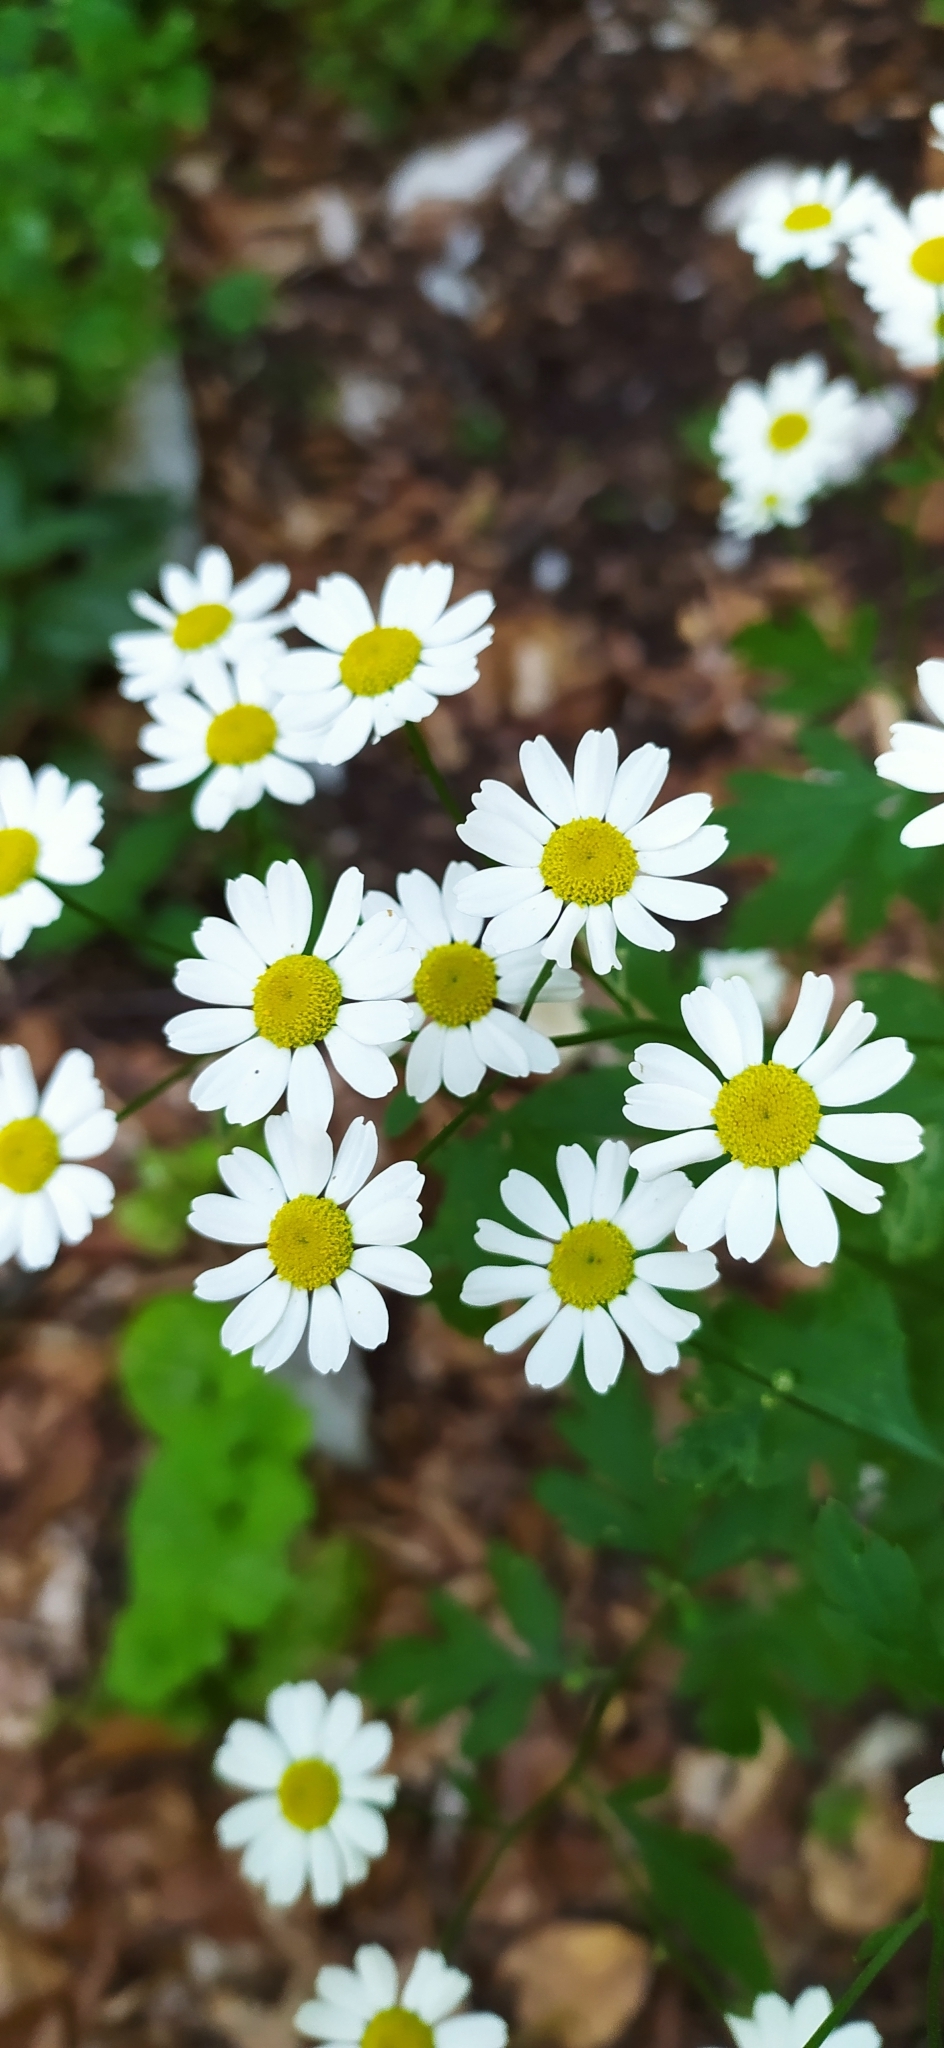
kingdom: Plantae
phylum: Tracheophyta
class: Magnoliopsida
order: Asterales
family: Asteraceae
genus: Tanacetum
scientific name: Tanacetum corymbosum
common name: Scentless feverfew
